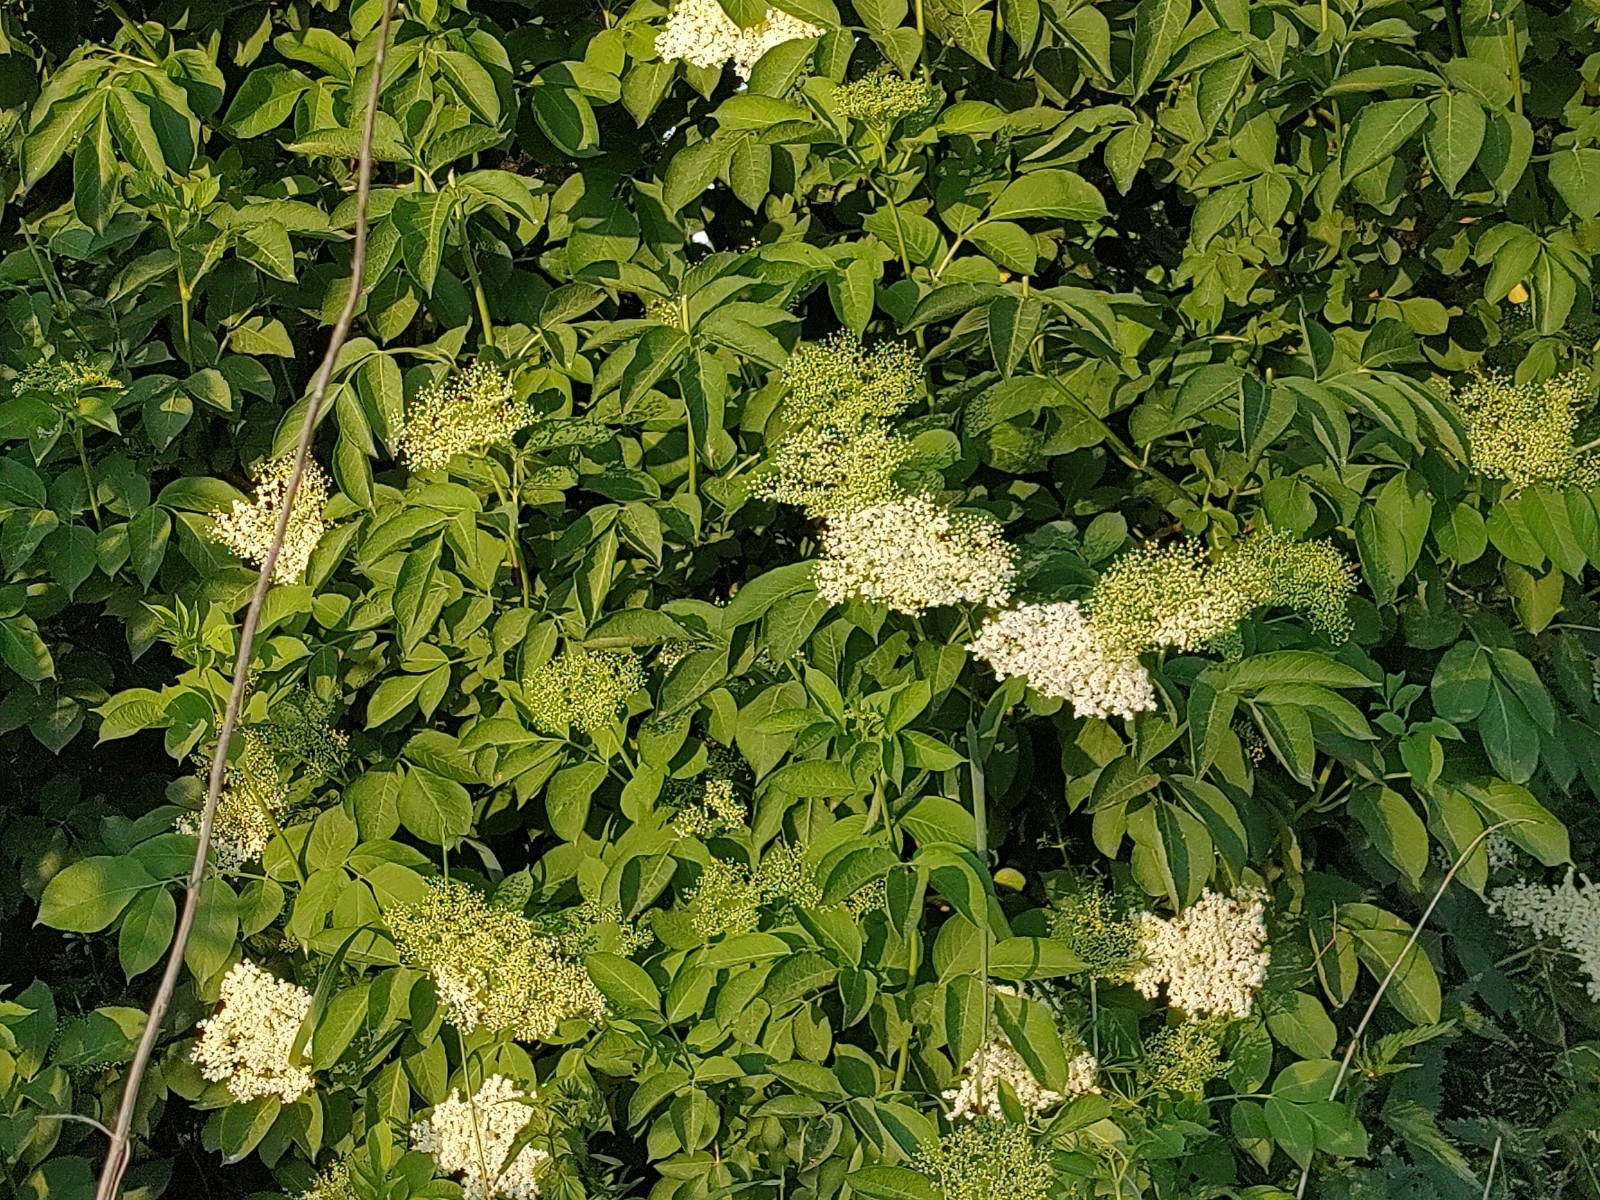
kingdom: Plantae
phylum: Tracheophyta
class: Magnoliopsida
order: Dipsacales
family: Viburnaceae
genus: Sambucus
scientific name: Sambucus nigra
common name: Elder
